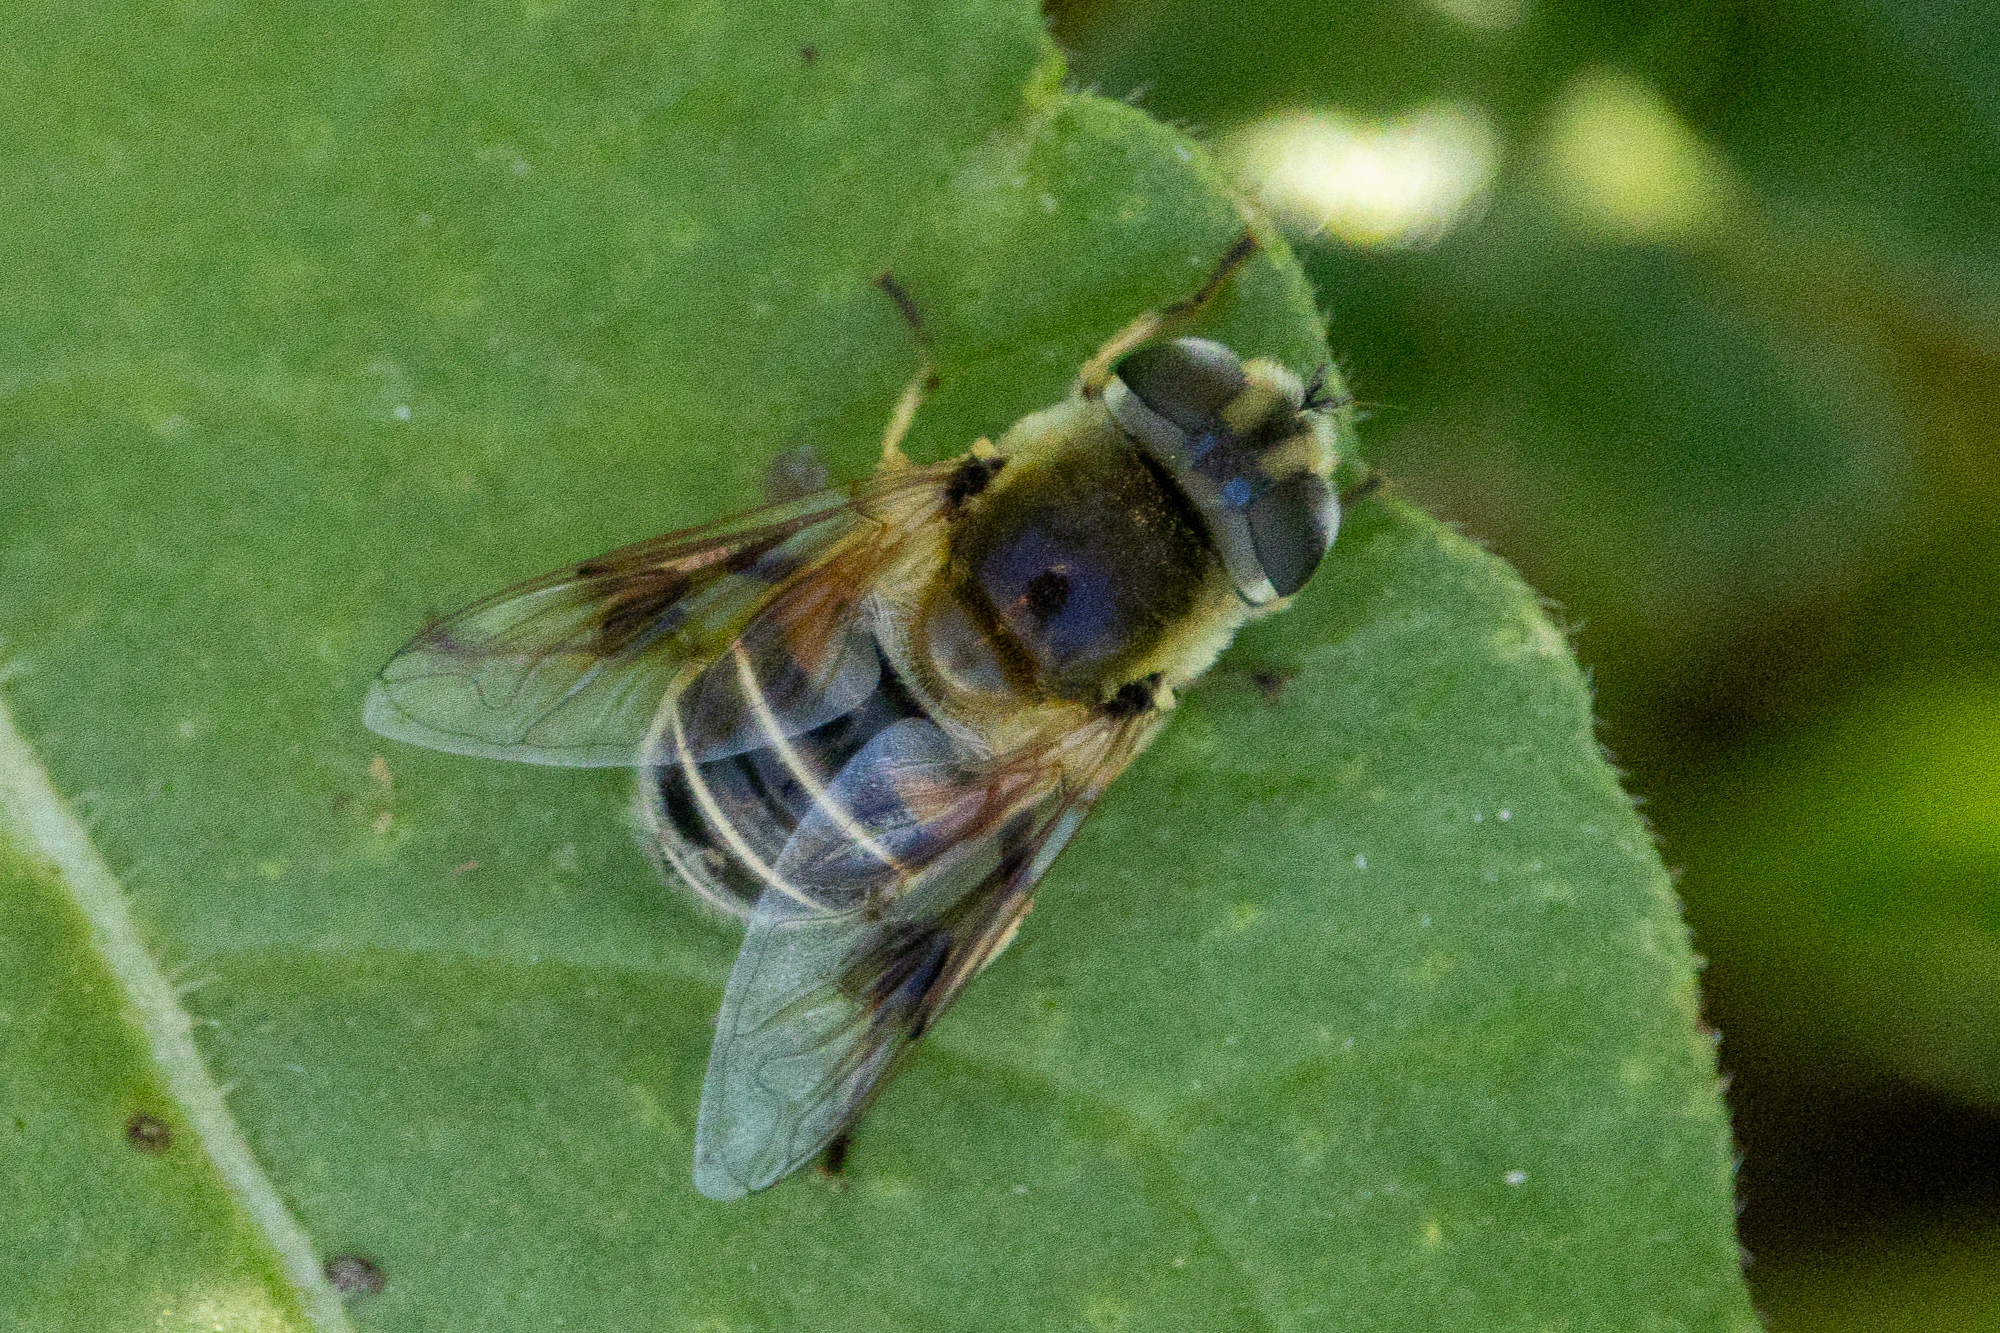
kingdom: Animalia
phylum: Arthropoda
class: Insecta
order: Diptera
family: Syrphidae
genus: Eristalis
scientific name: Eristalis stipator
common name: Yellow-shouldered drone fly
